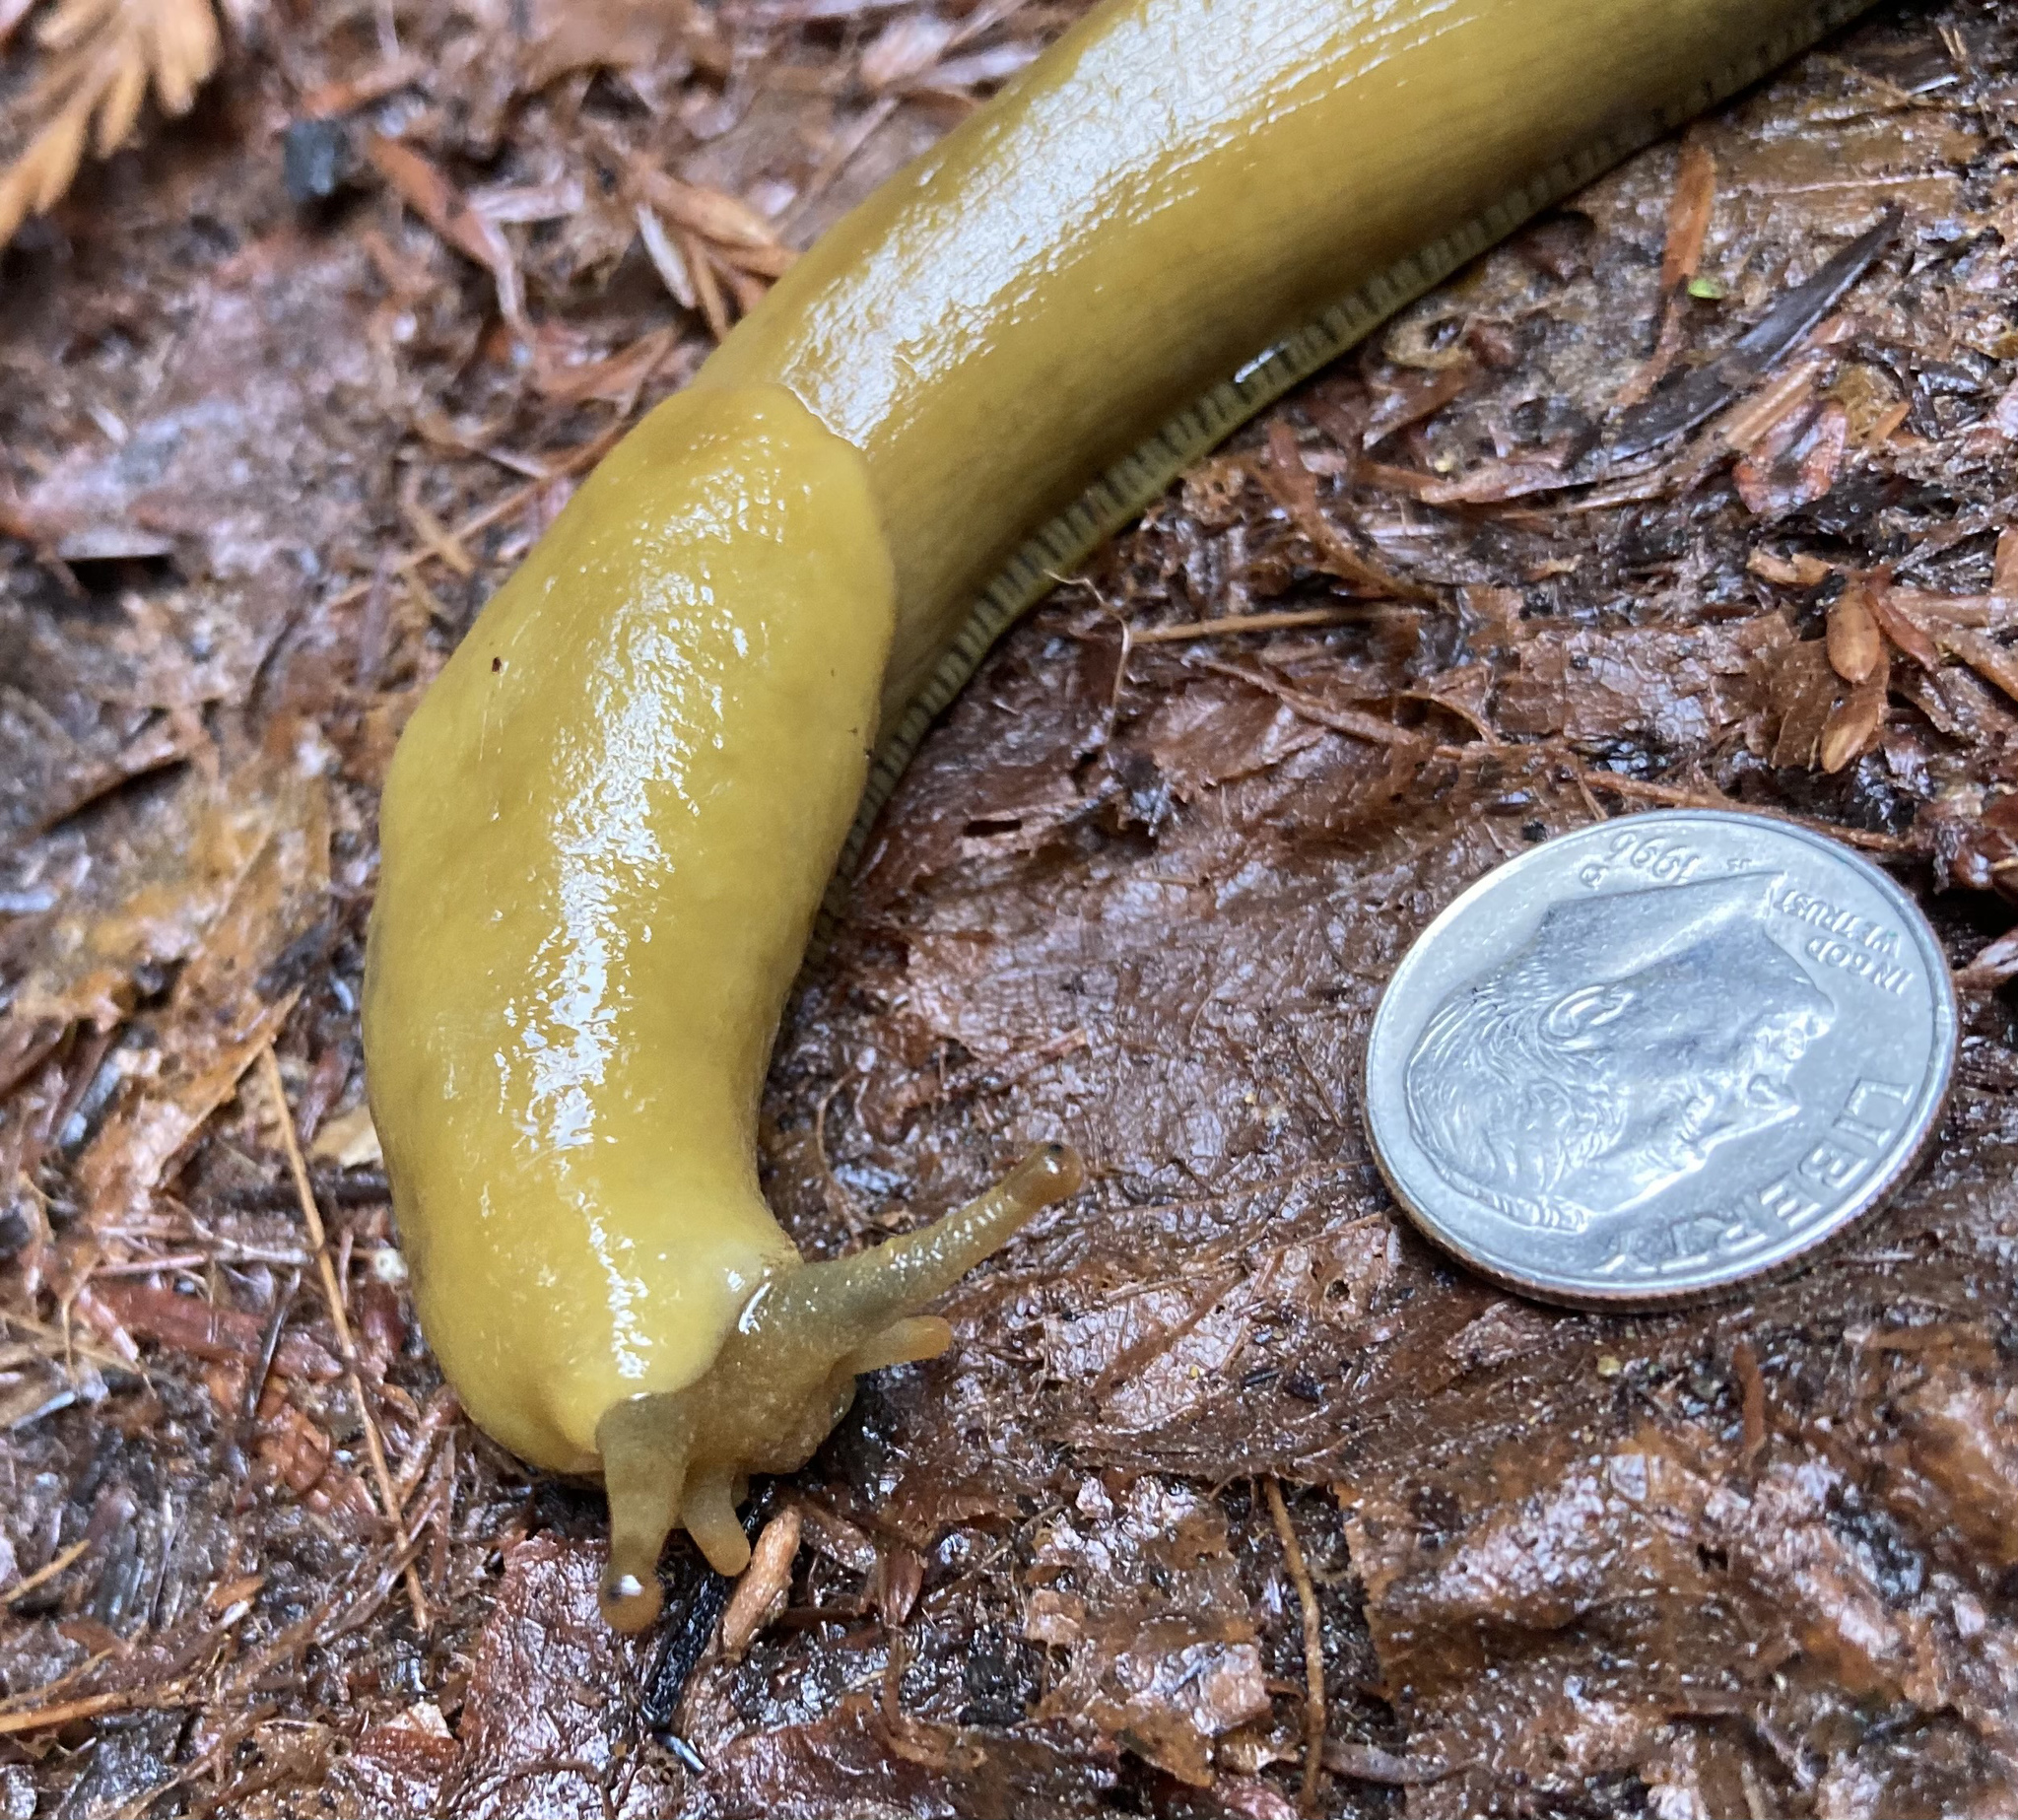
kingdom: Animalia
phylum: Mollusca
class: Gastropoda
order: Stylommatophora
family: Ariolimacidae
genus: Ariolimax
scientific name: Ariolimax buttoni
